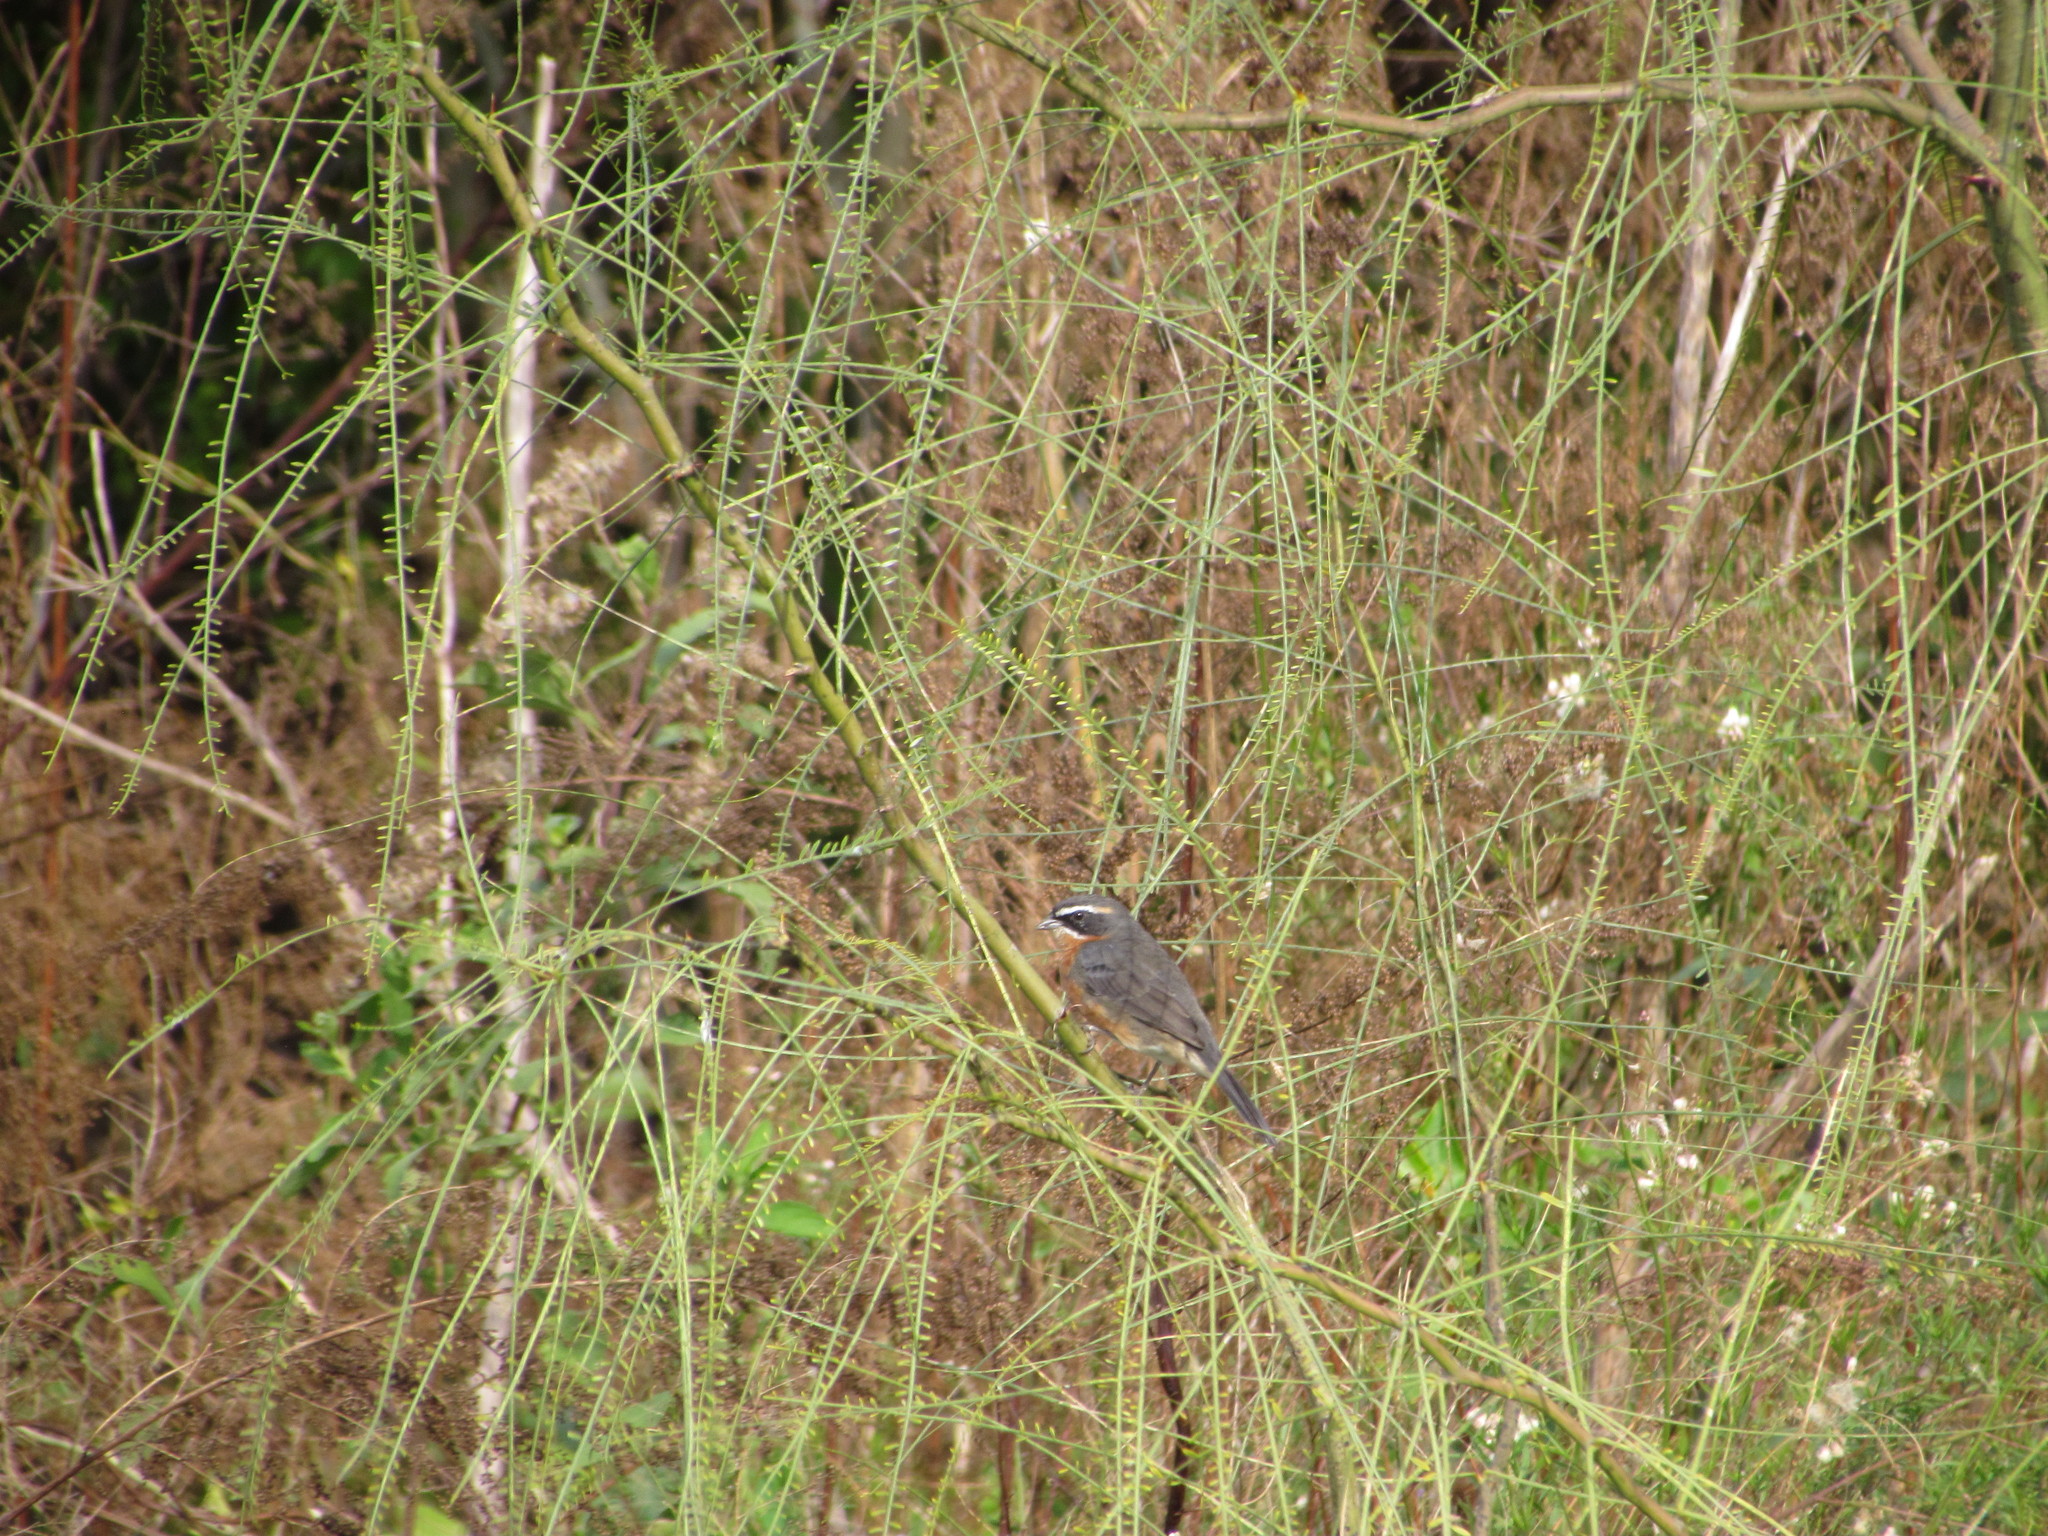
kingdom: Animalia
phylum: Chordata
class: Aves
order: Passeriformes
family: Thraupidae
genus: Poospiza
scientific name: Poospiza nigrorufa
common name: Black-and-rufous warbling finch
